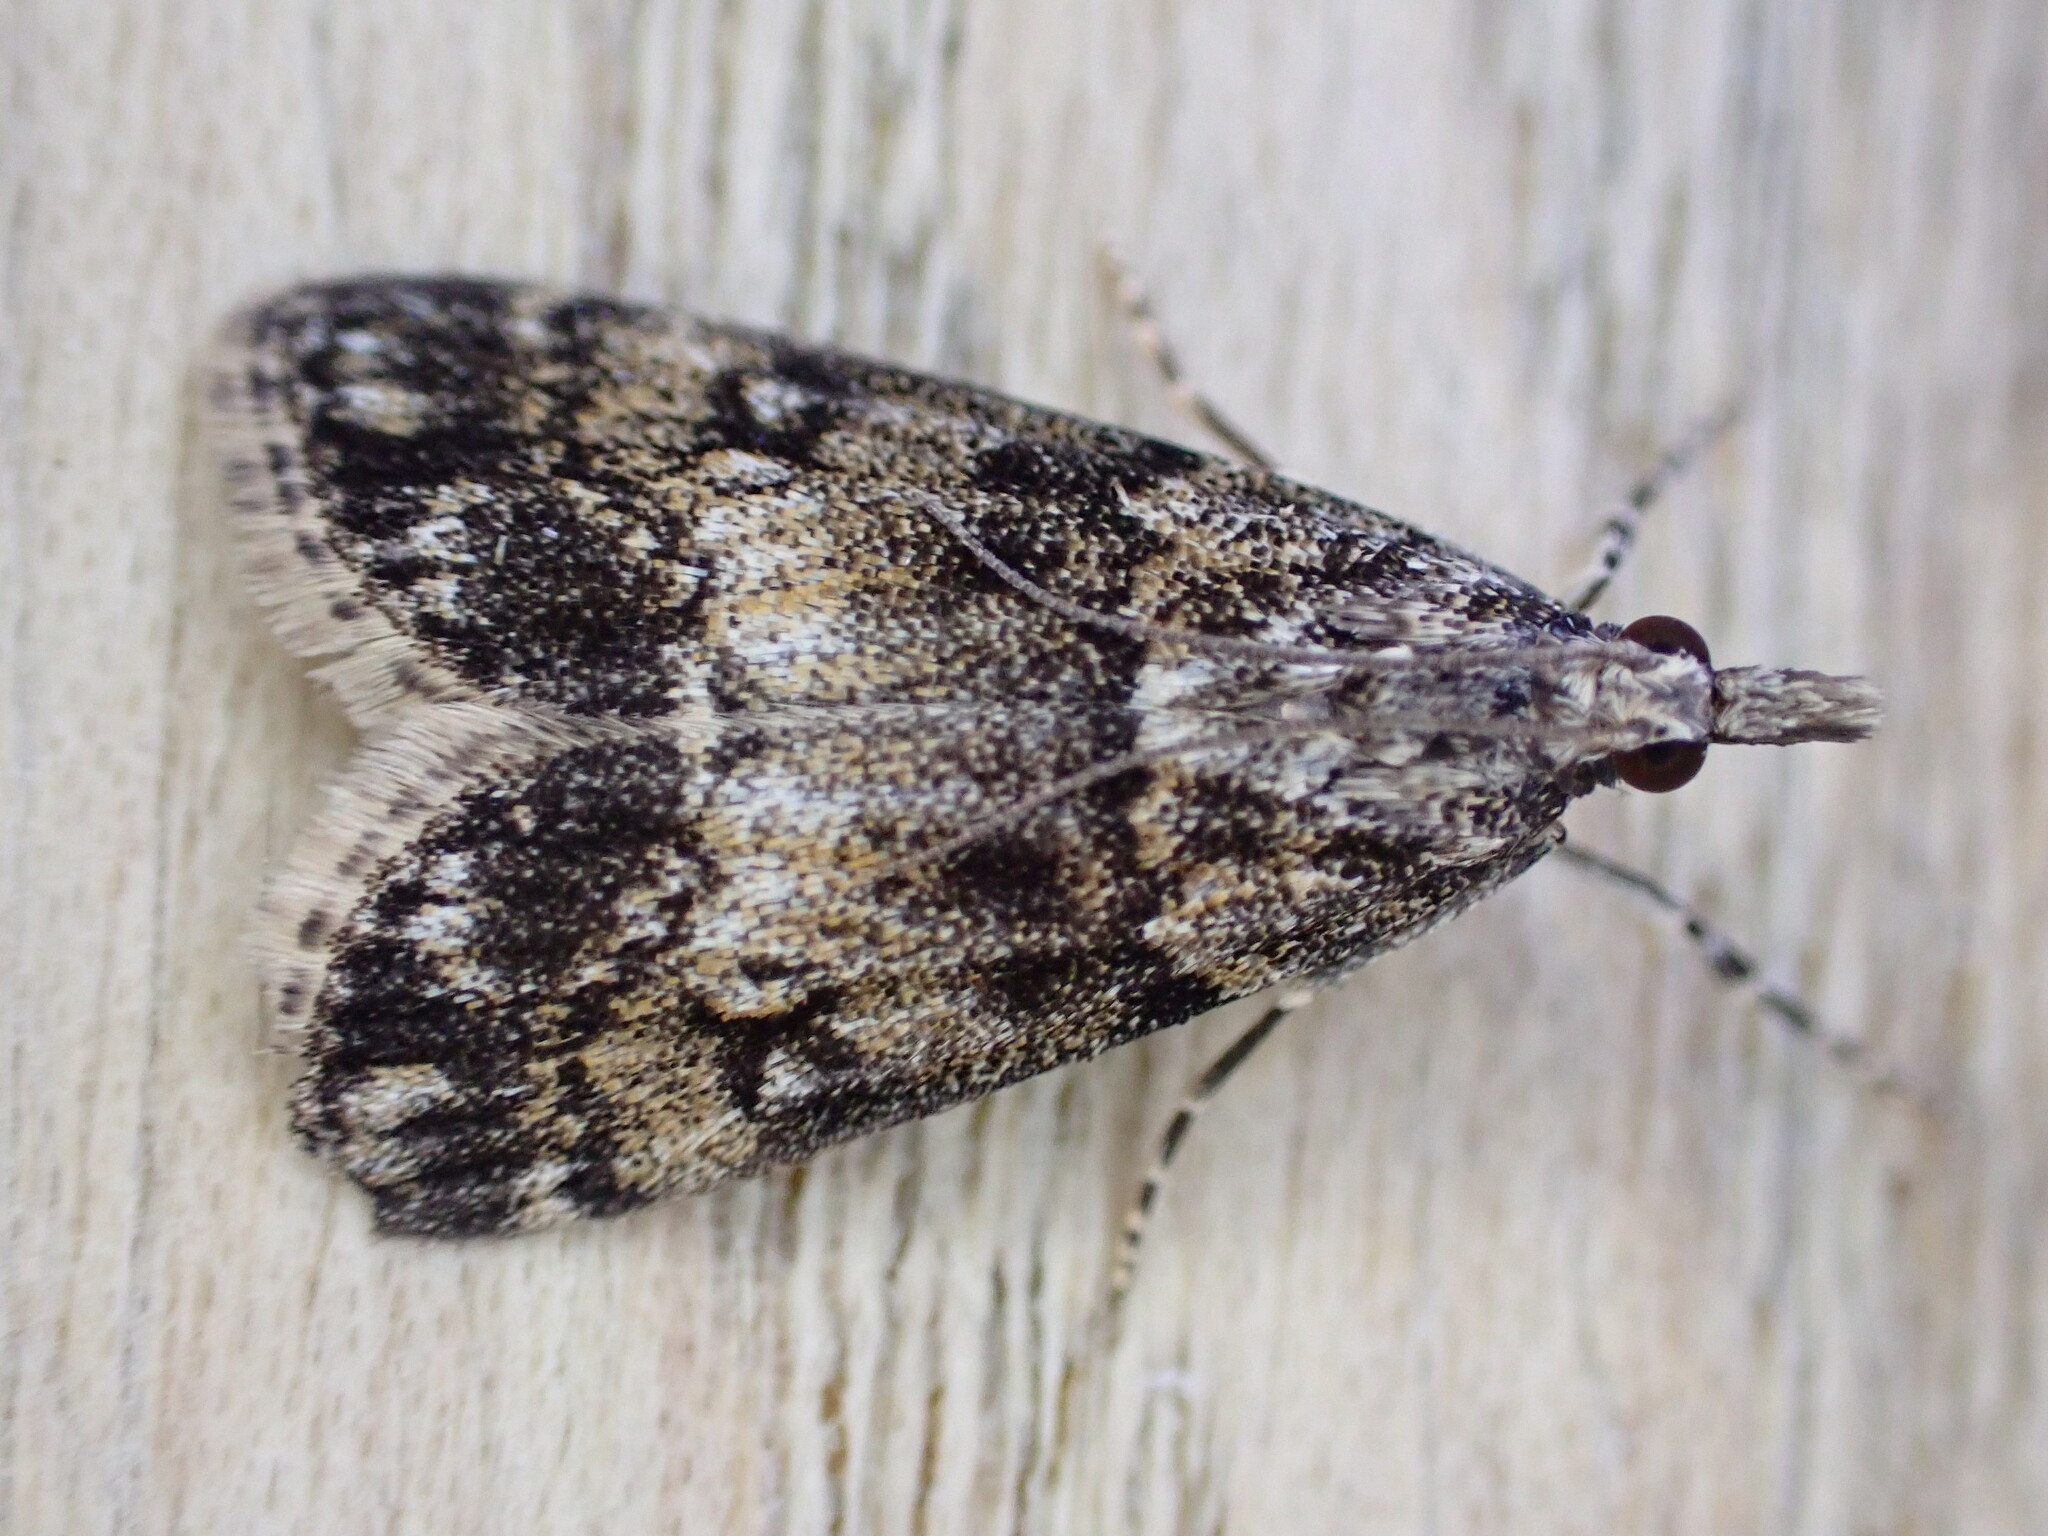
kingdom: Animalia
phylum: Arthropoda
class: Insecta
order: Lepidoptera
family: Crambidae
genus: Eudonia
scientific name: Eudonia lacustrata
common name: Little grey
